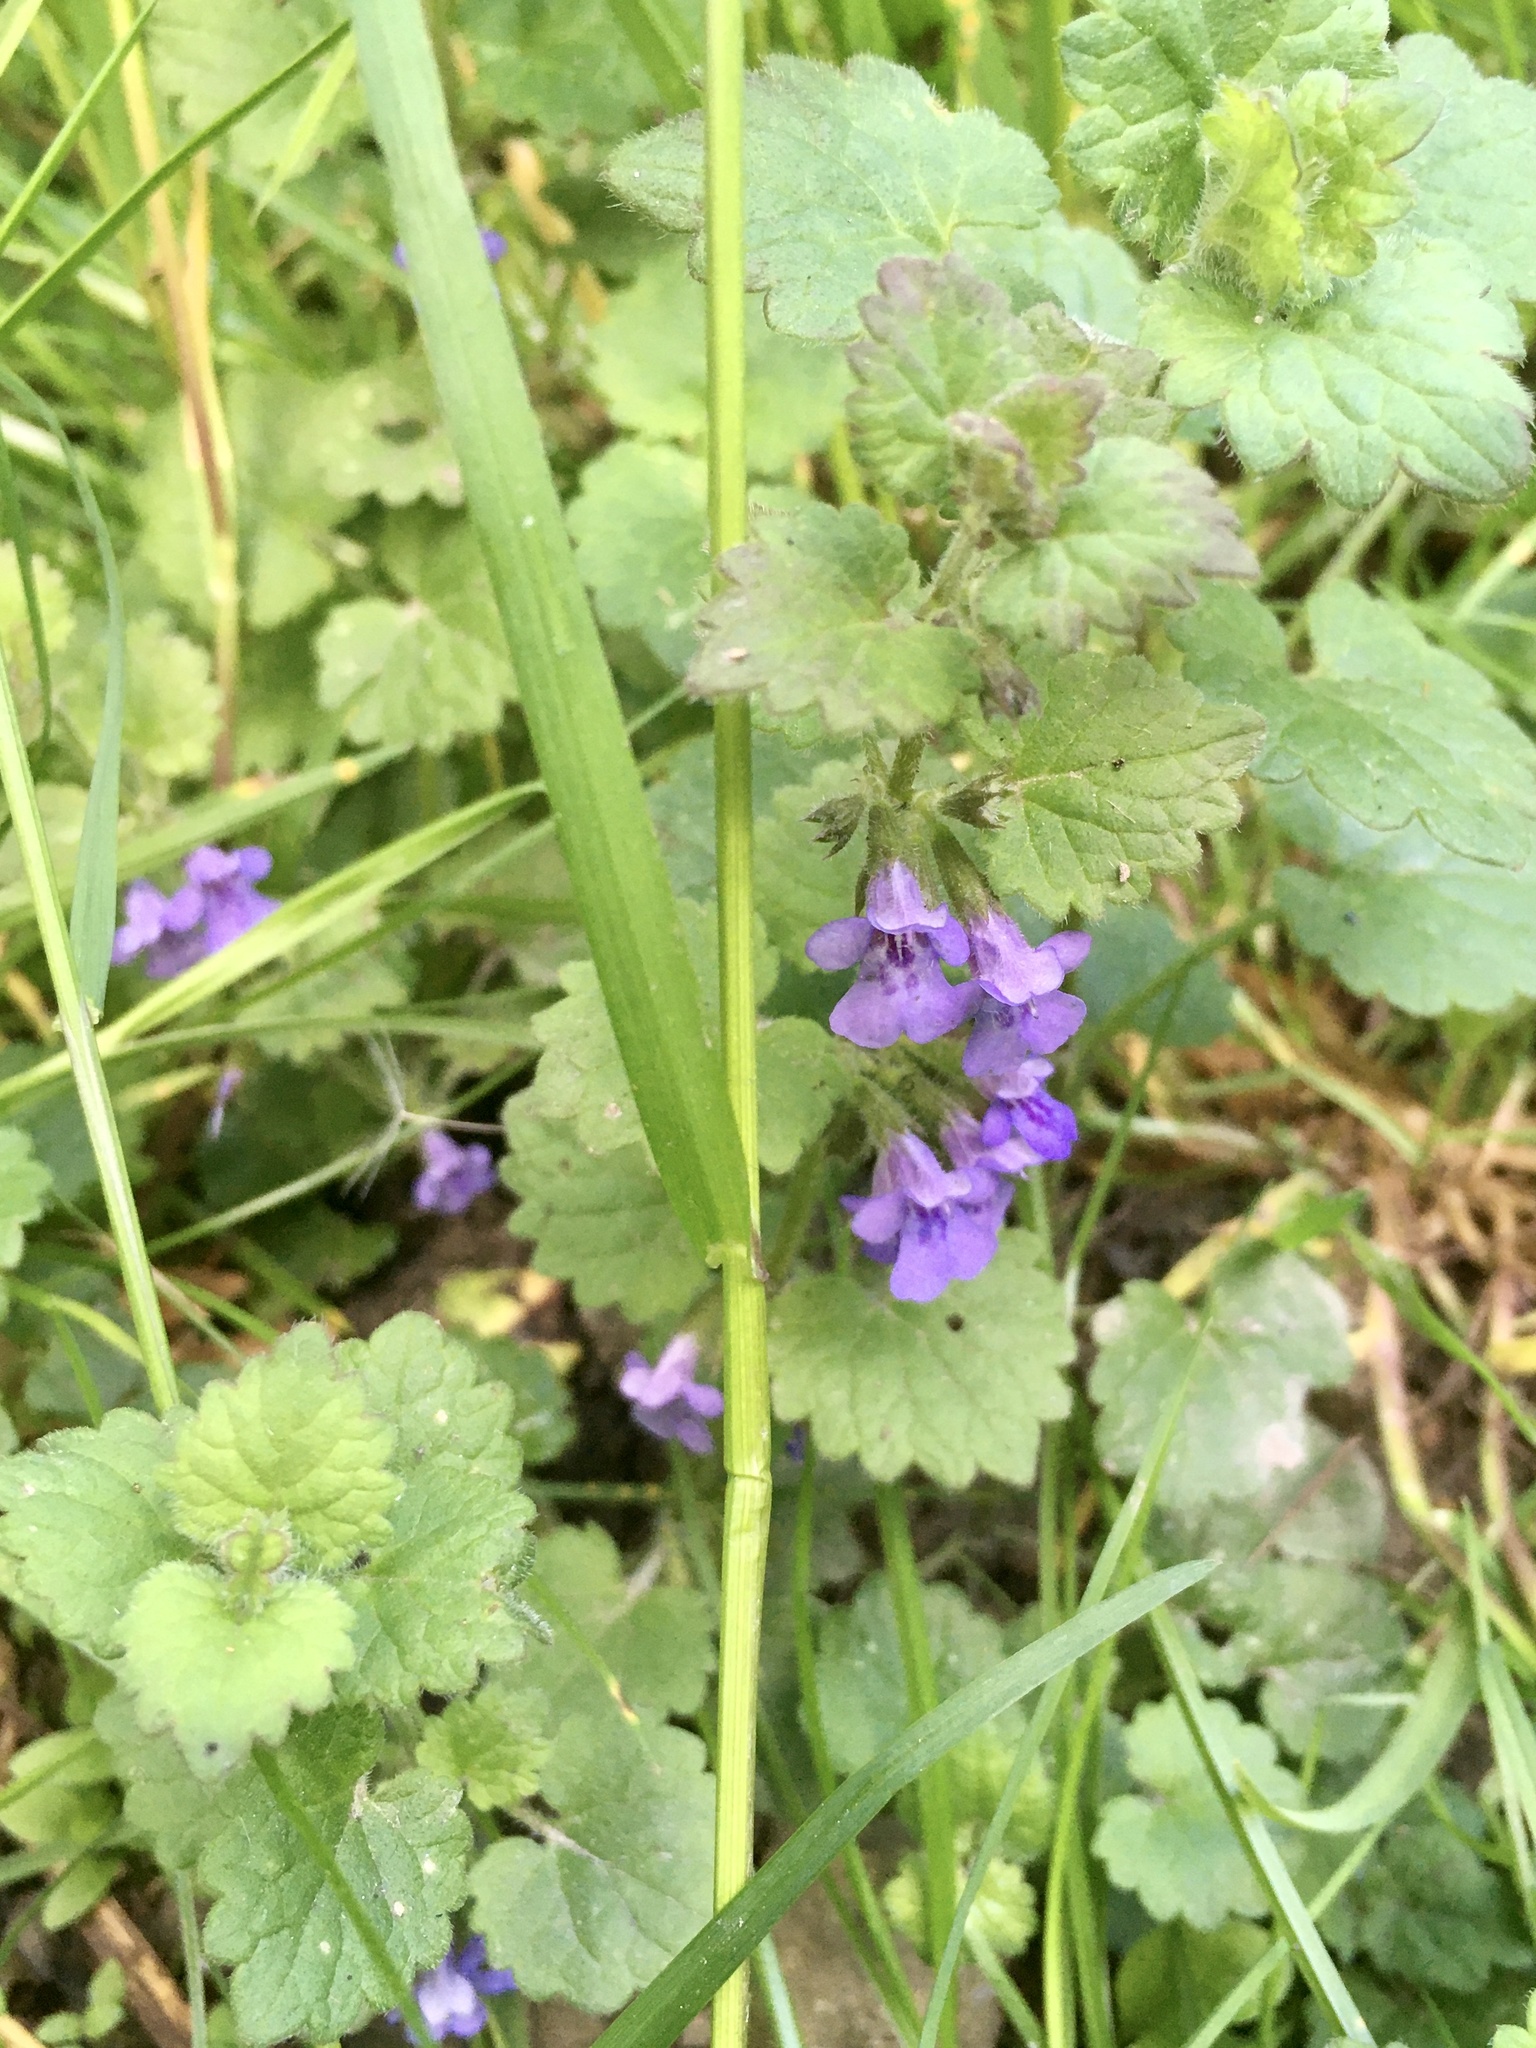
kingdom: Plantae
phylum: Tracheophyta
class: Magnoliopsida
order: Lamiales
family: Lamiaceae
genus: Glechoma
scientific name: Glechoma hederacea
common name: Ground ivy
